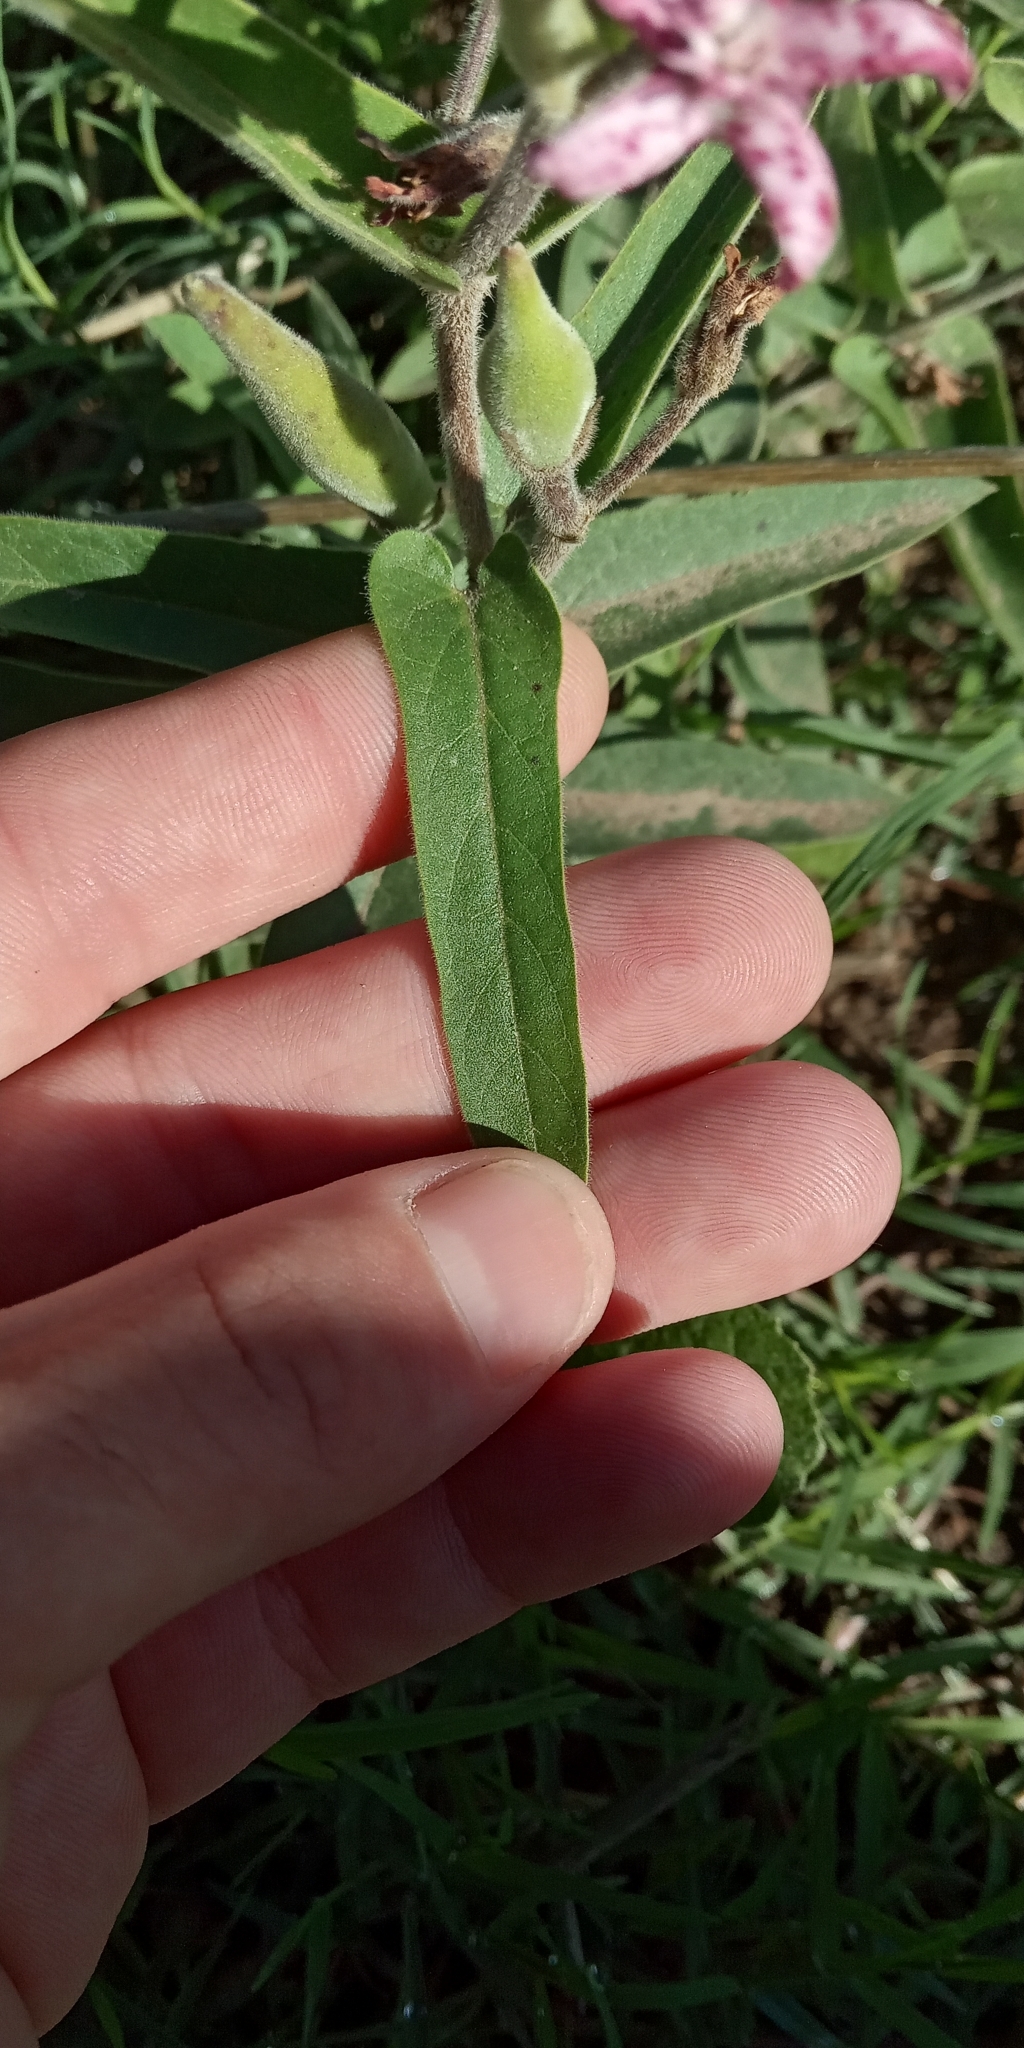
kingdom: Plantae
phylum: Tracheophyta
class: Magnoliopsida
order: Gentianales
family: Apocynaceae
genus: Oxypetalum
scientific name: Oxypetalum solanoides
